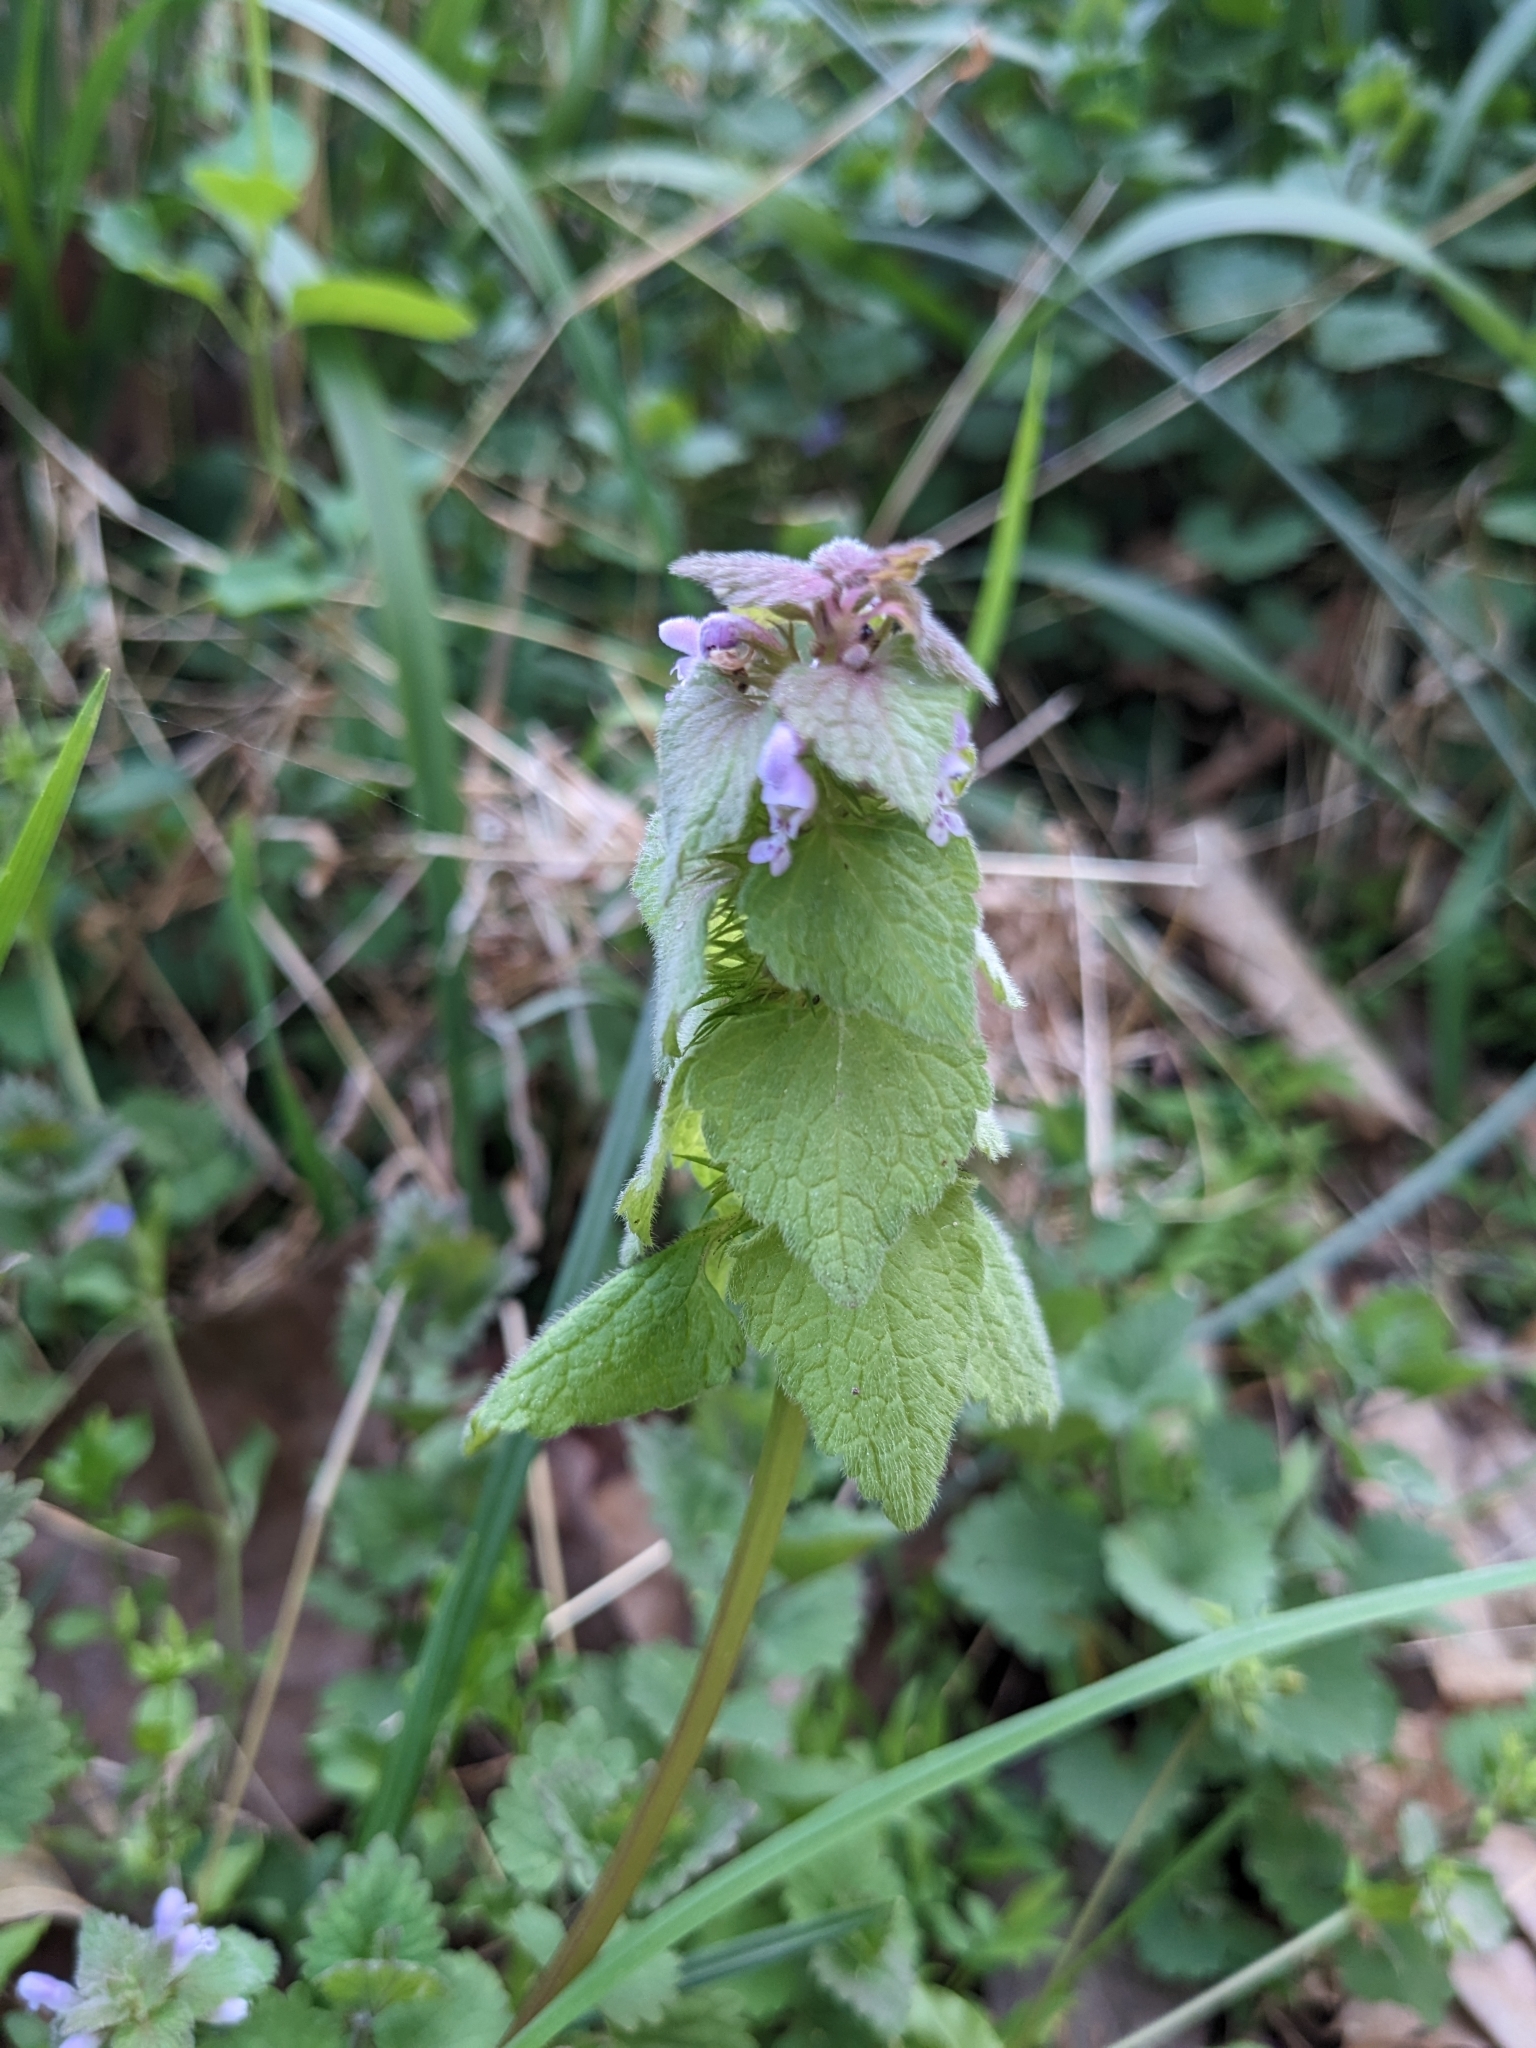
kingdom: Plantae
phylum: Tracheophyta
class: Magnoliopsida
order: Lamiales
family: Lamiaceae
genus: Lamium
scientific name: Lamium purpureum
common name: Red dead-nettle
